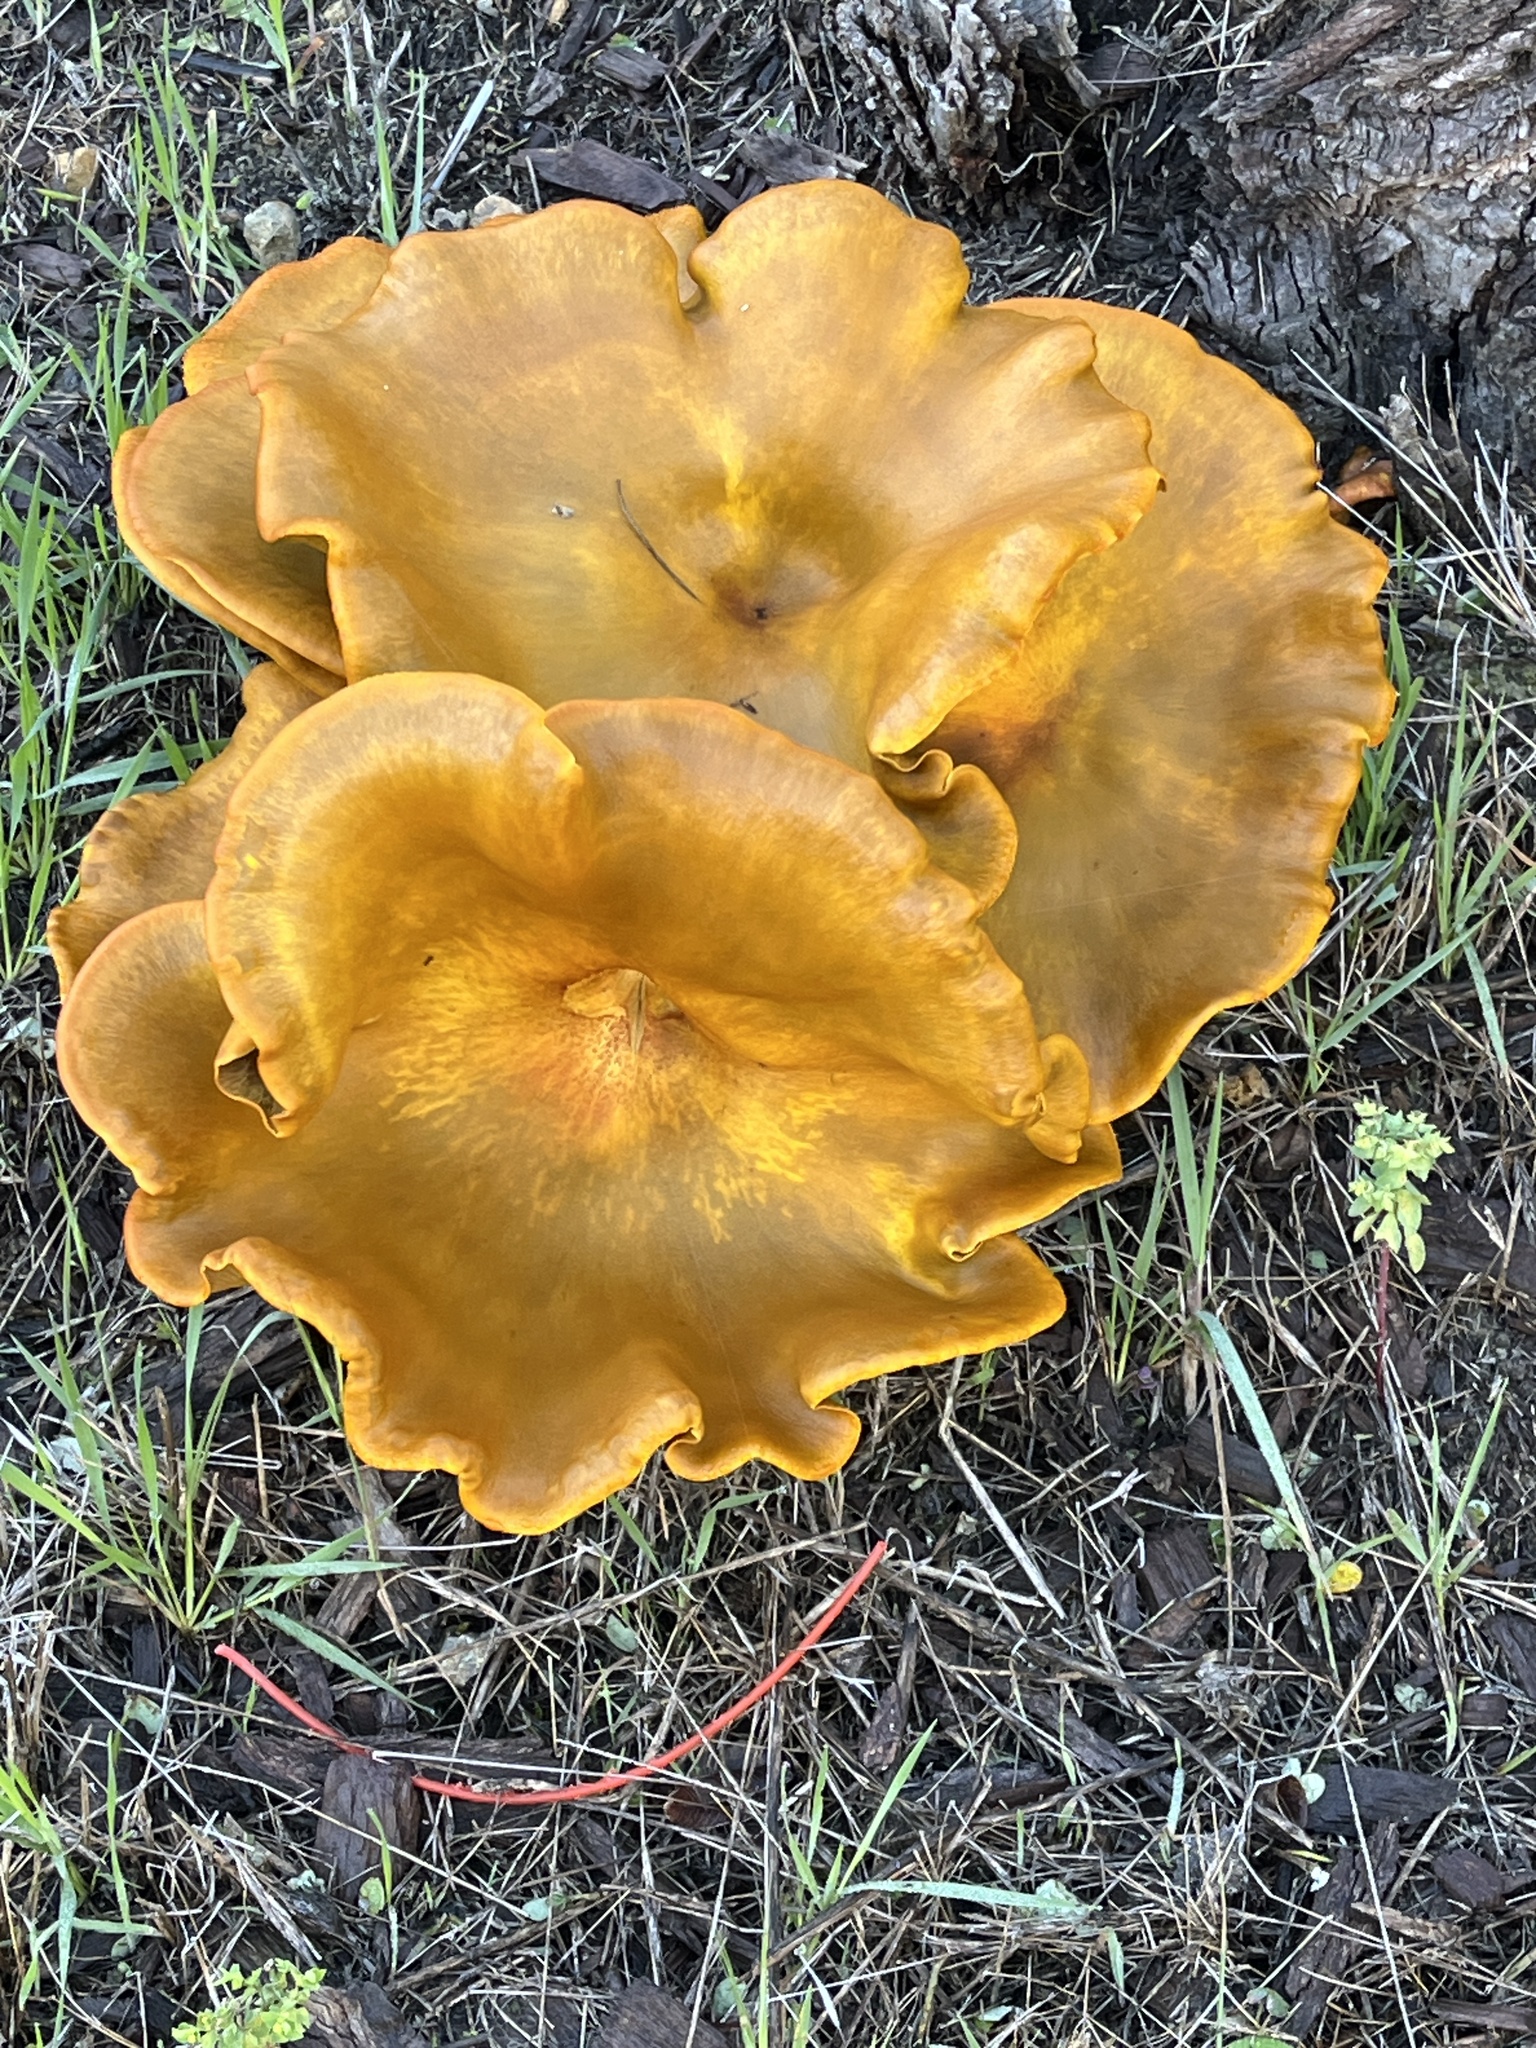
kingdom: Fungi
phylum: Basidiomycota
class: Agaricomycetes
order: Agaricales
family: Omphalotaceae
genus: Omphalotus
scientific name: Omphalotus olivascens
